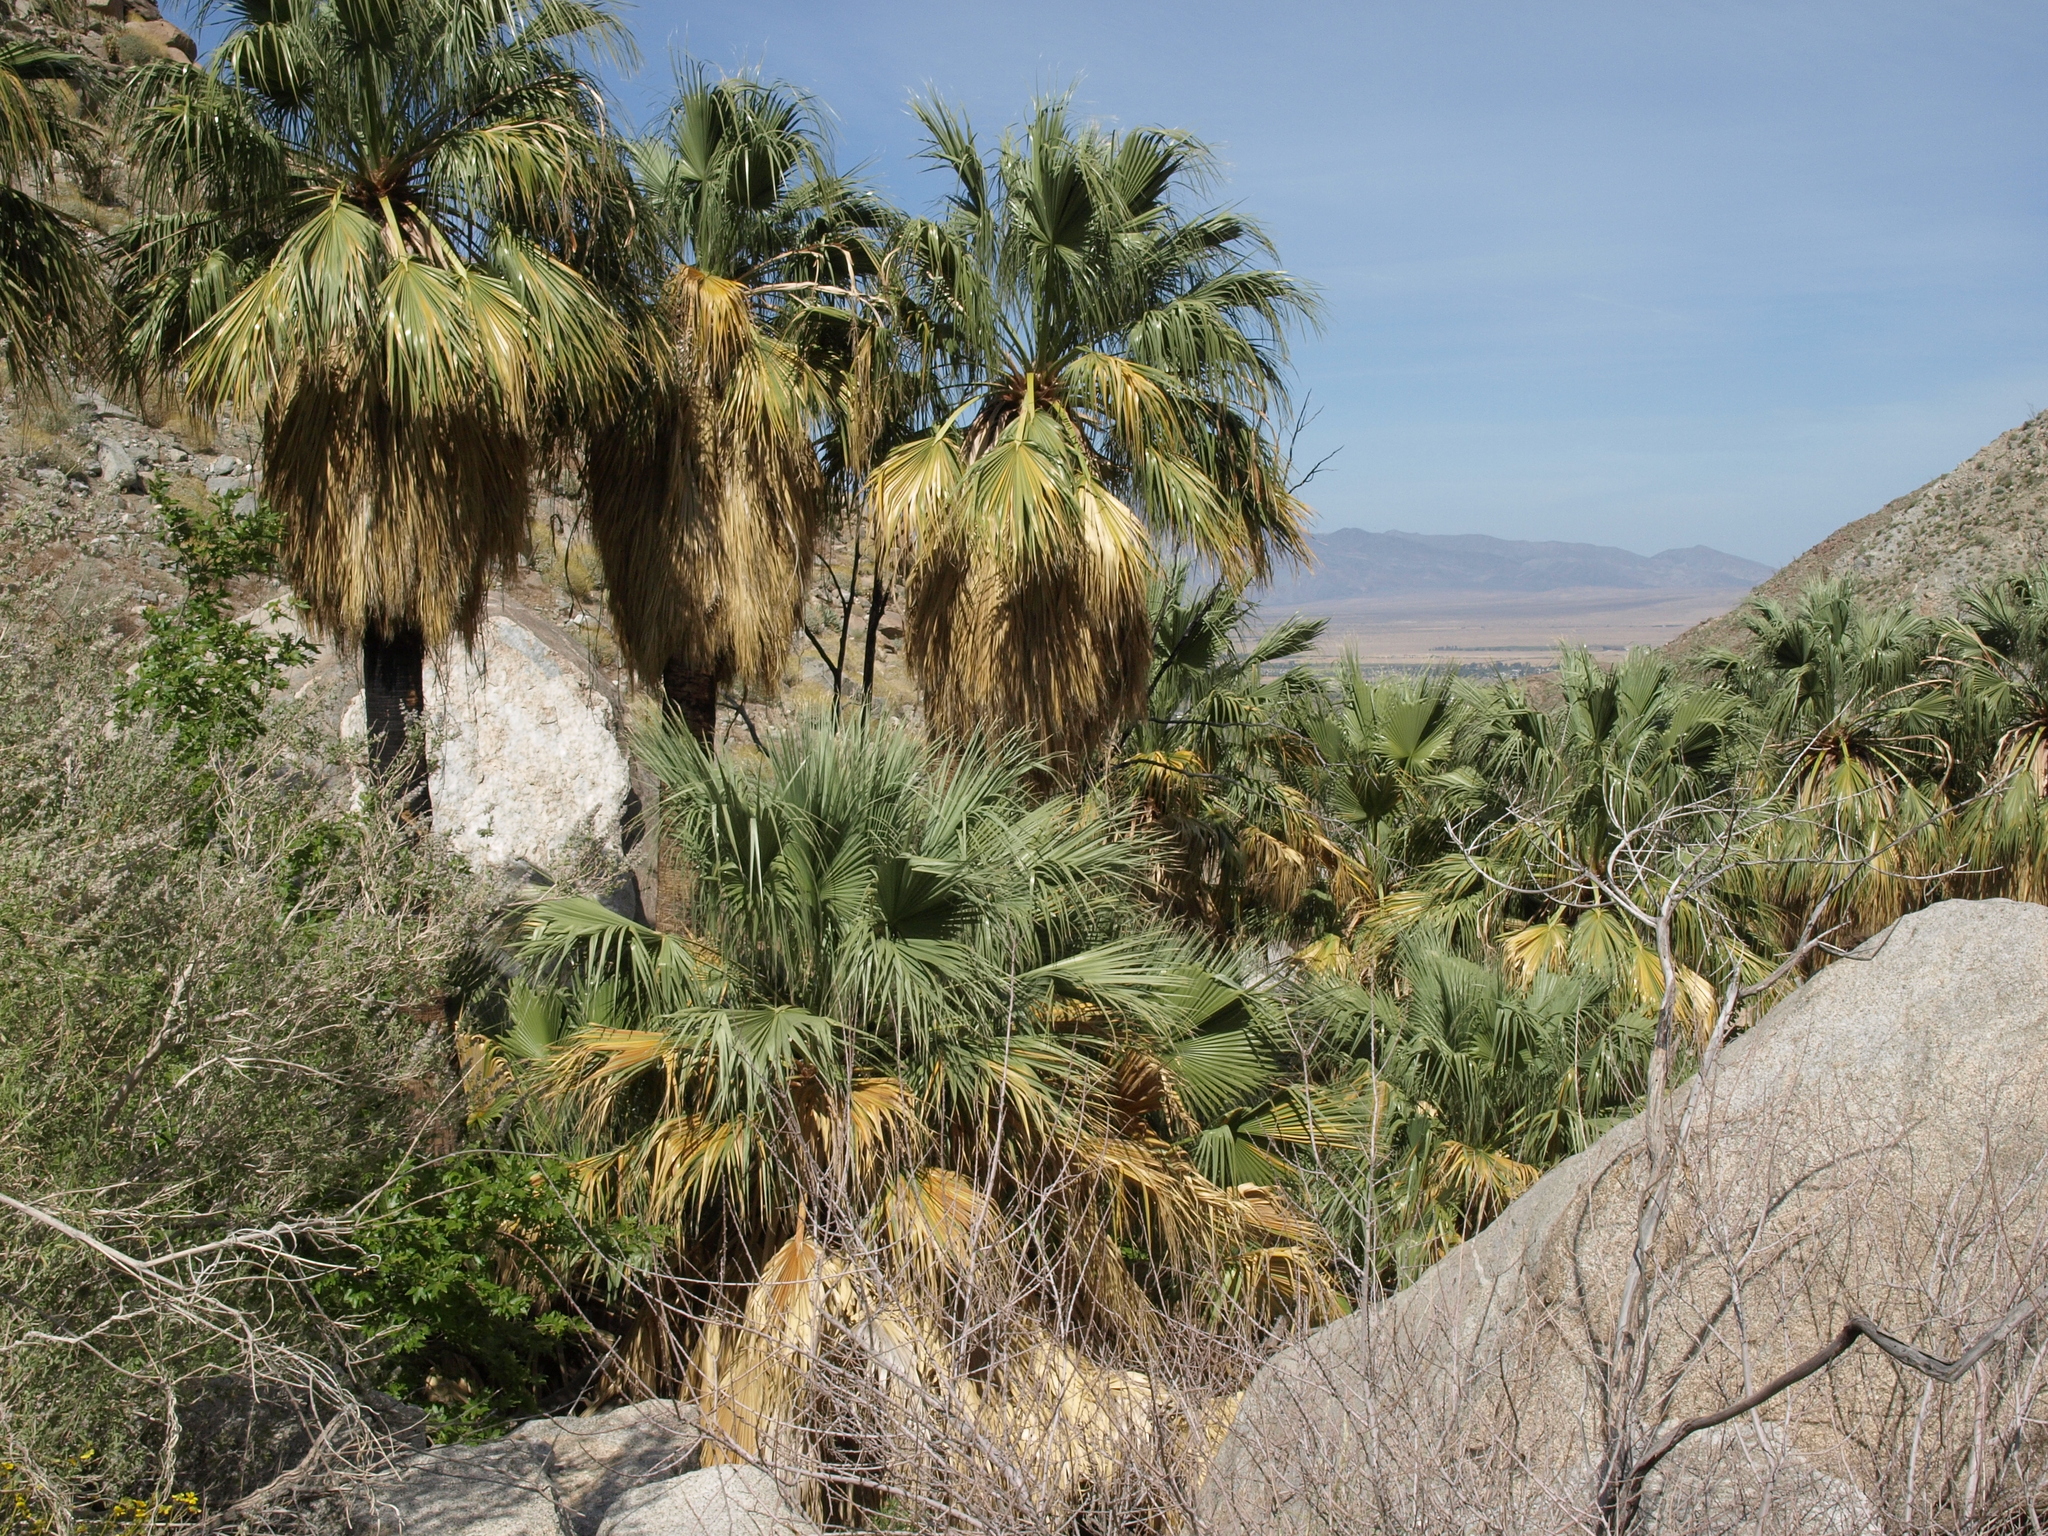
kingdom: Plantae
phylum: Tracheophyta
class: Liliopsida
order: Arecales
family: Arecaceae
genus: Washingtonia
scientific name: Washingtonia filifera
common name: California fan palm
